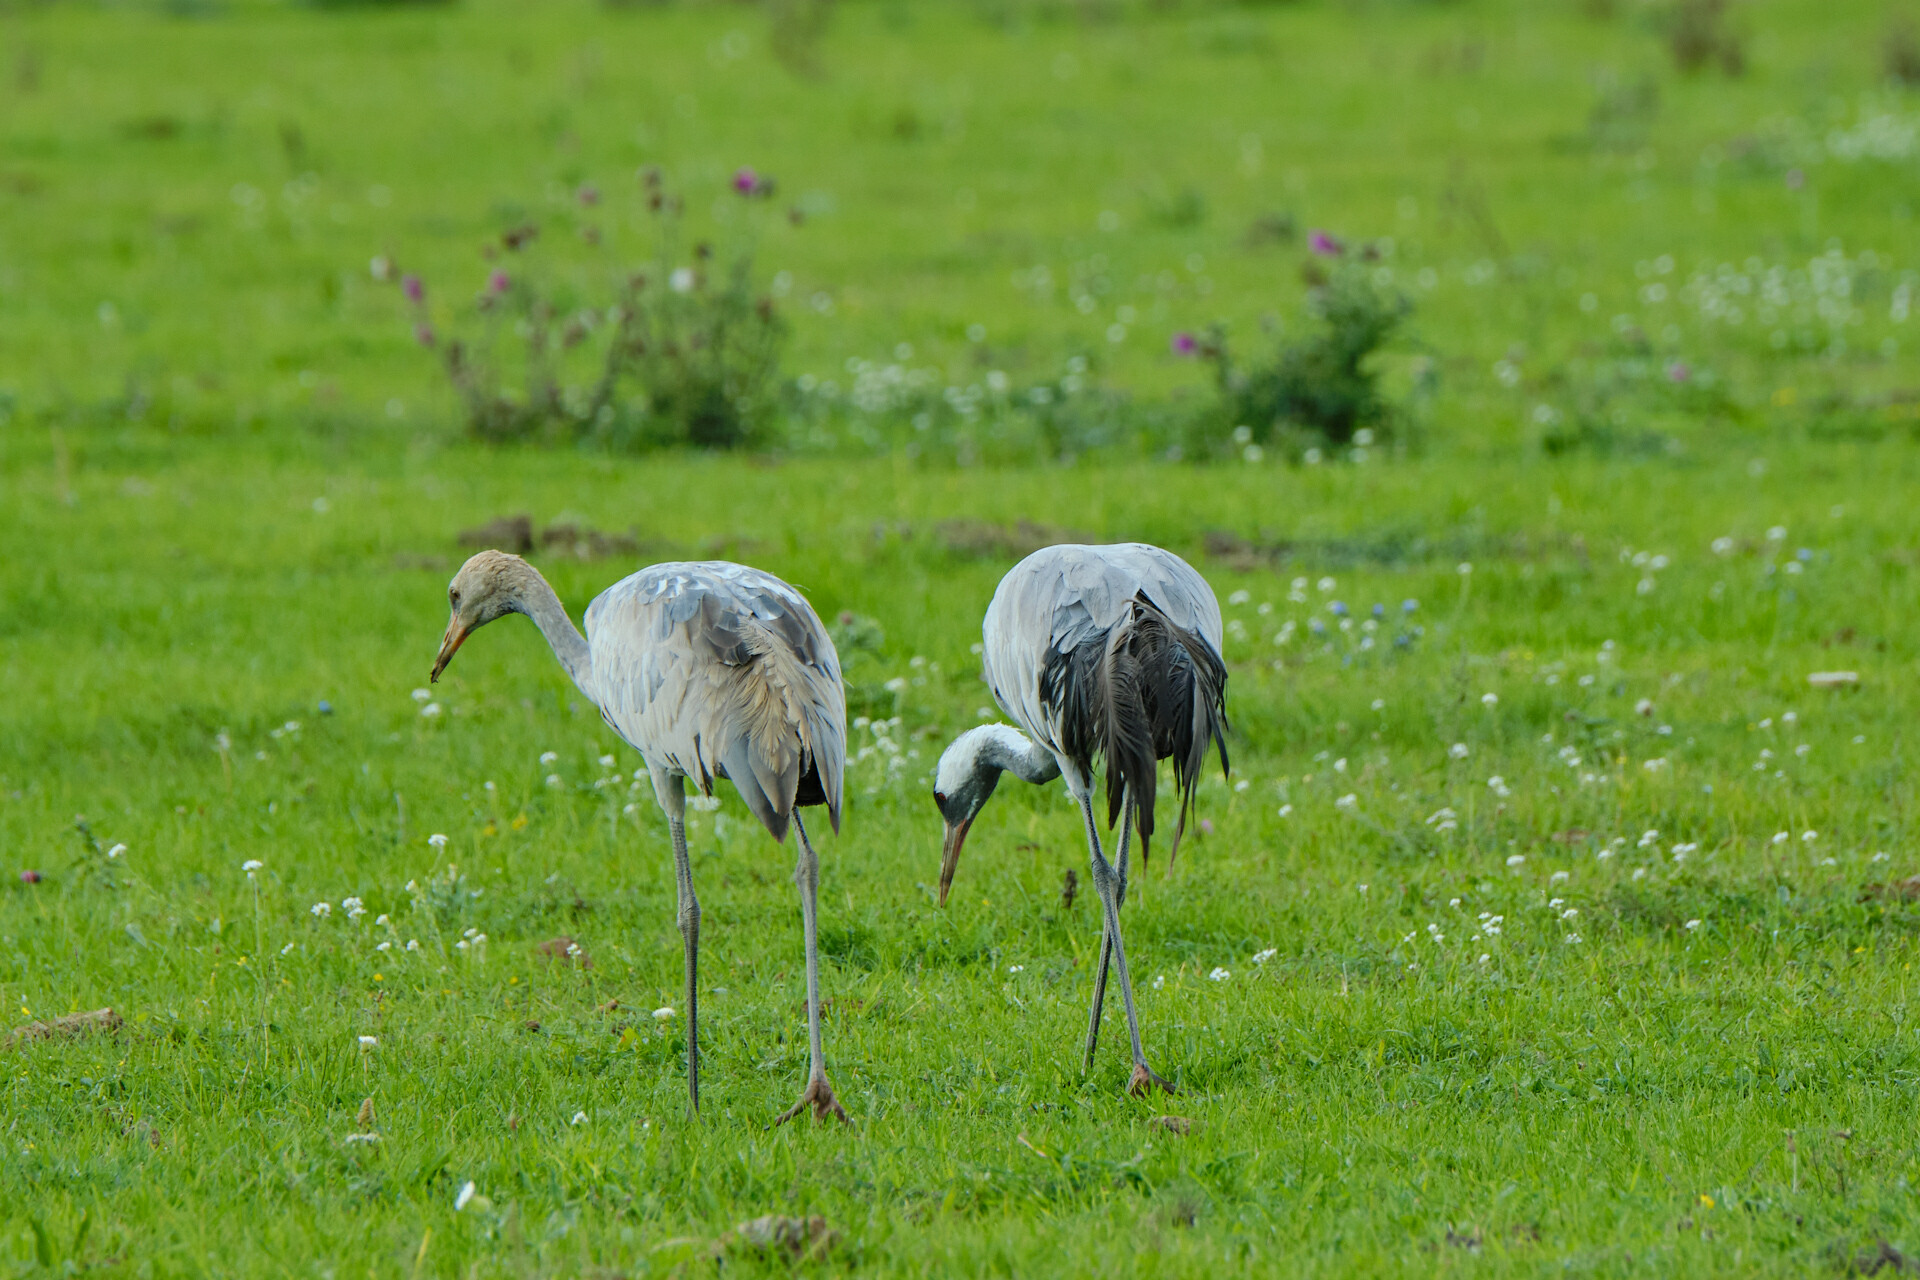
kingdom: Animalia
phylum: Chordata
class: Aves
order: Gruiformes
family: Gruidae
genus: Grus
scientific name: Grus grus
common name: Common crane
